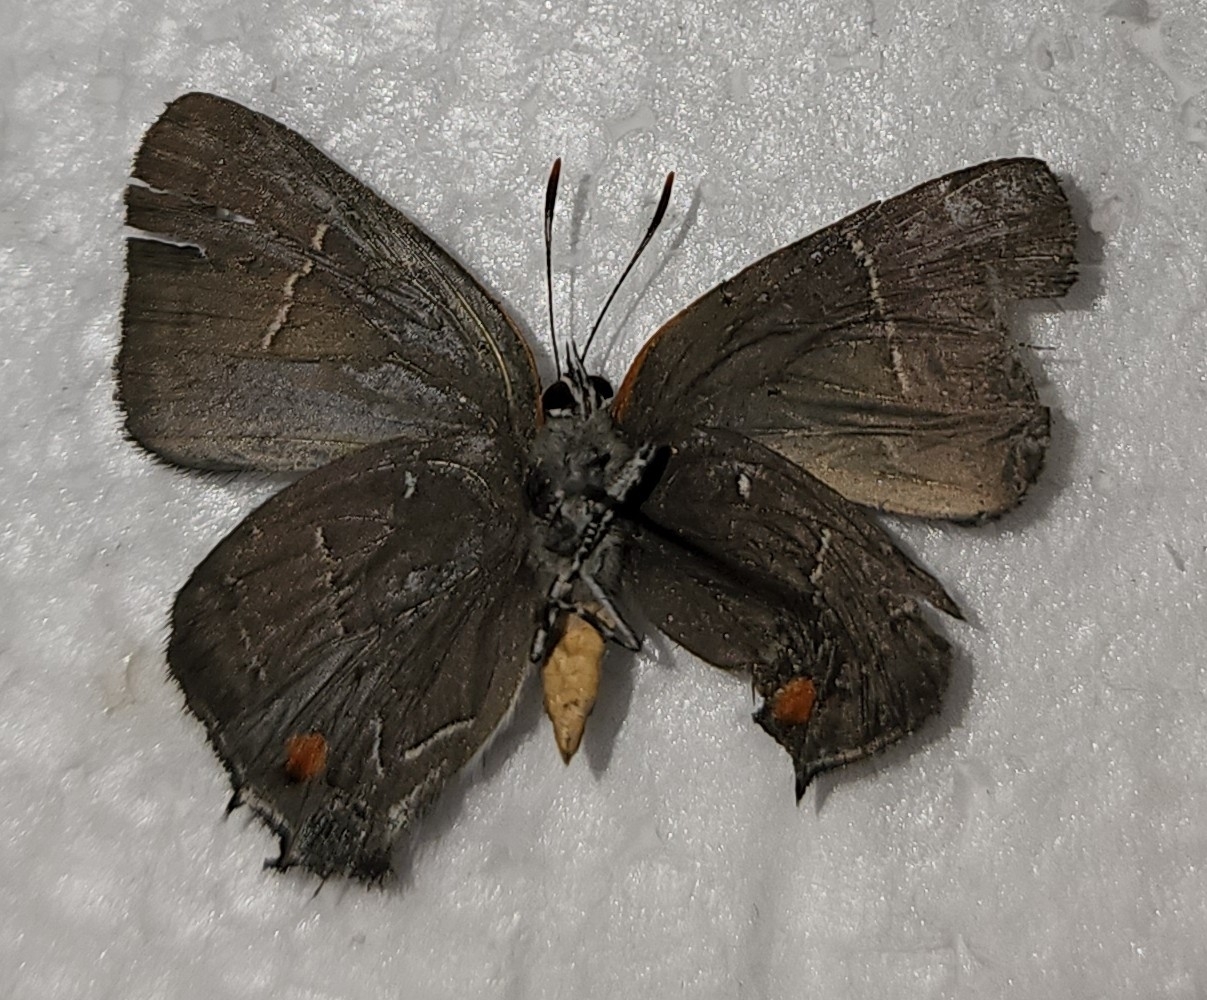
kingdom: Animalia
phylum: Arthropoda
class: Insecta
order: Lepidoptera
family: Lycaenidae
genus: Parrhasius
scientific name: Parrhasius m-album
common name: White m hairstreak
